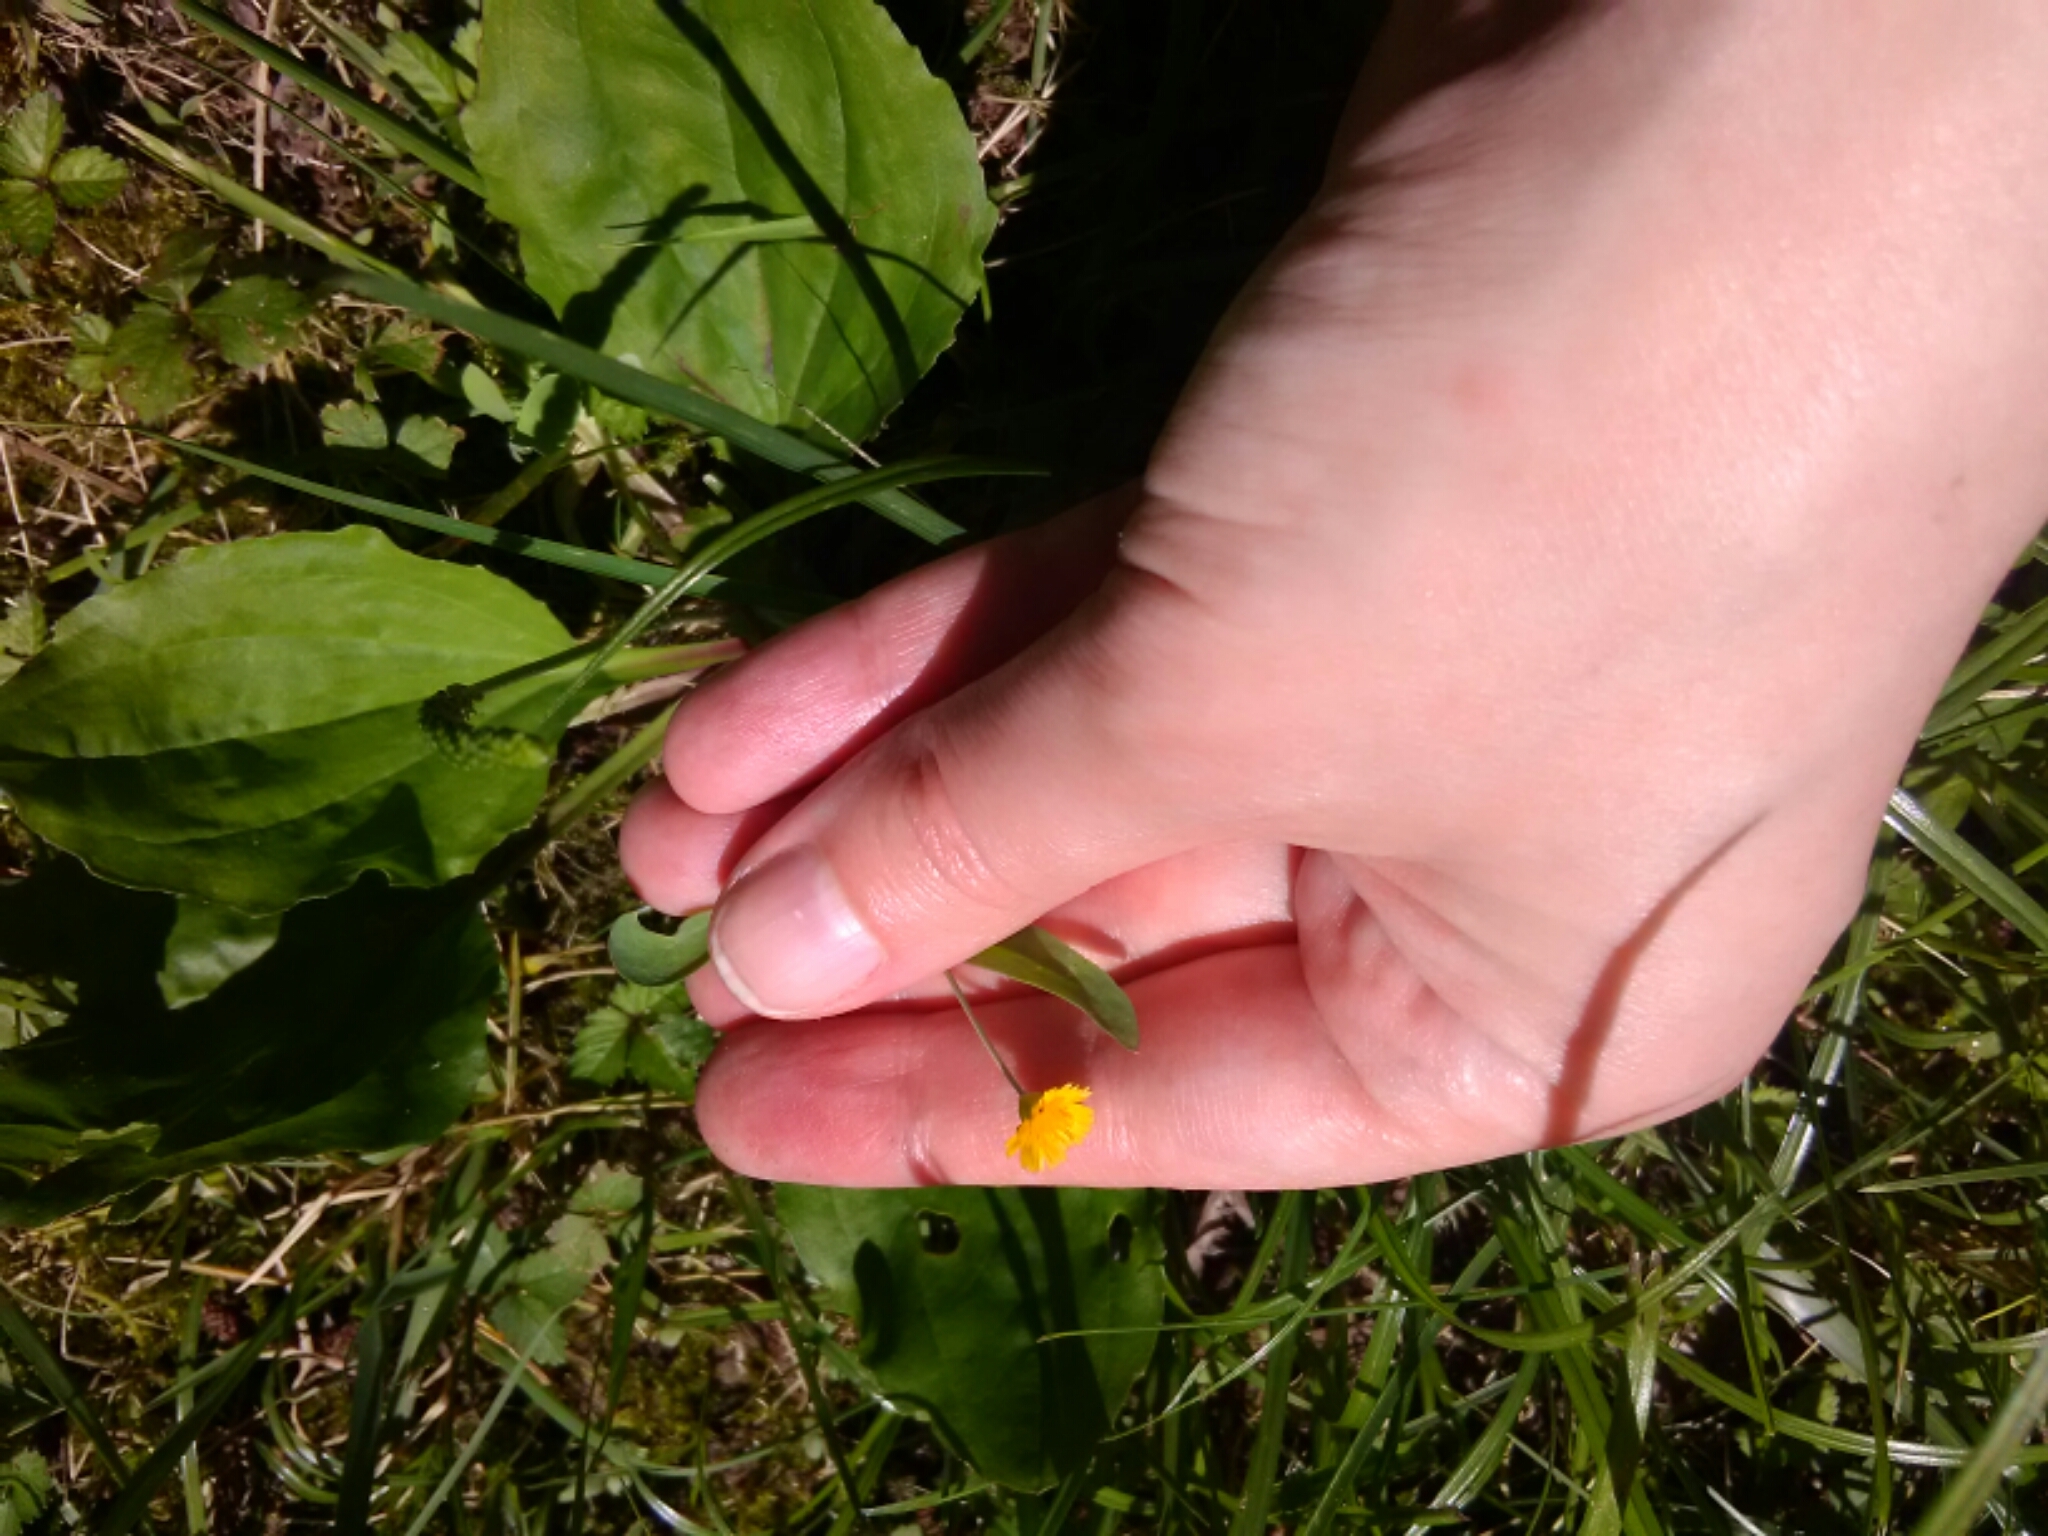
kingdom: Plantae
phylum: Tracheophyta
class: Magnoliopsida
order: Asterales
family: Asteraceae
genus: Krigia
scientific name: Krigia cespitosa
